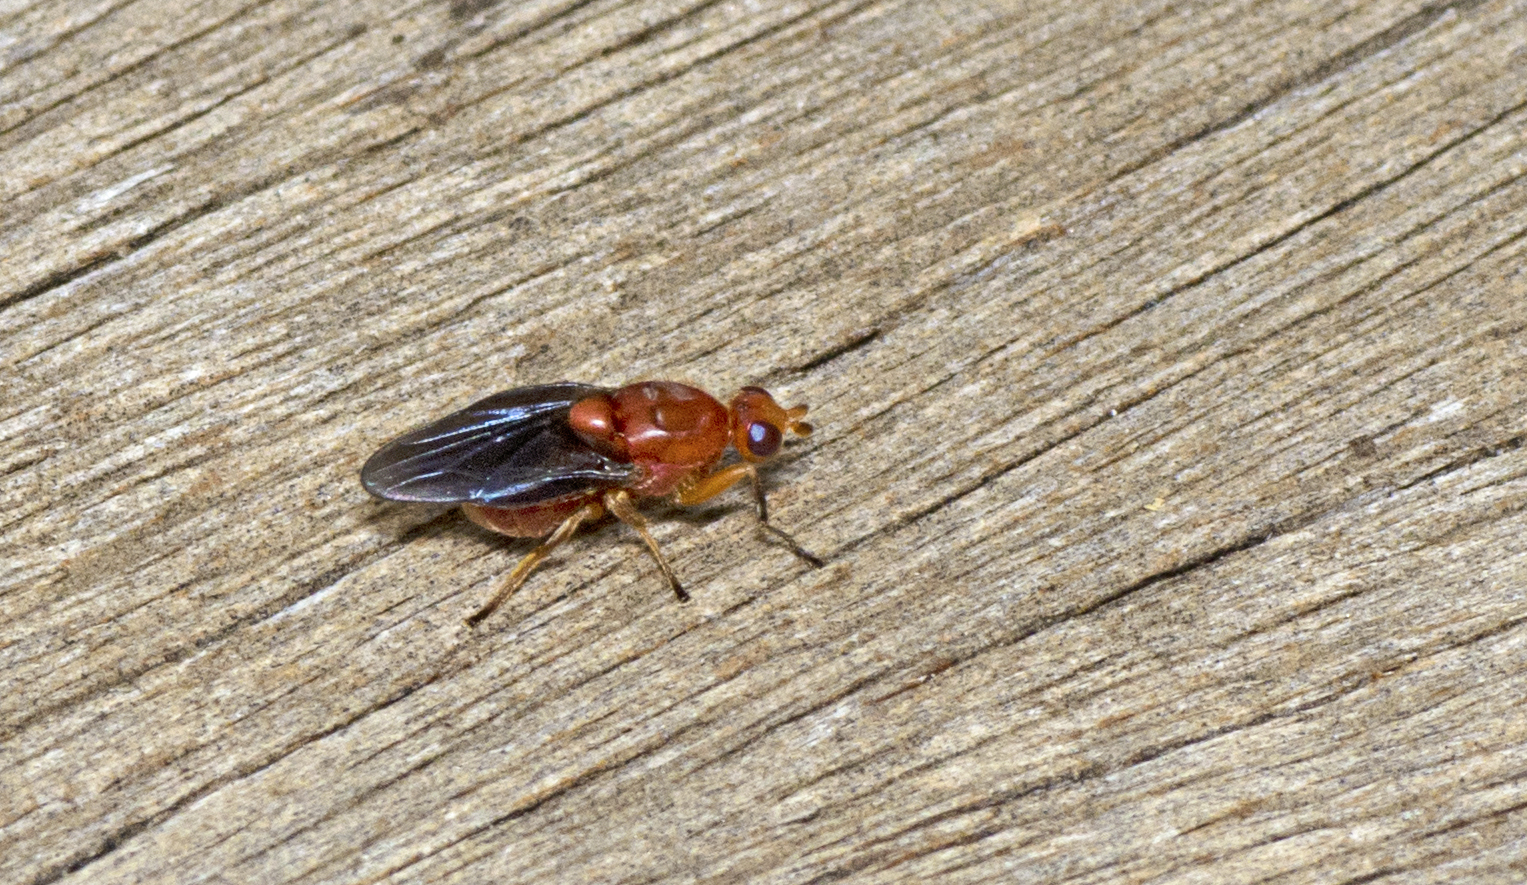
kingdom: Animalia
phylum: Arthropoda
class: Insecta
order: Diptera
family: Chloropidae
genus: Pemphigonotus
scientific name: Pemphigonotus mirabilis
